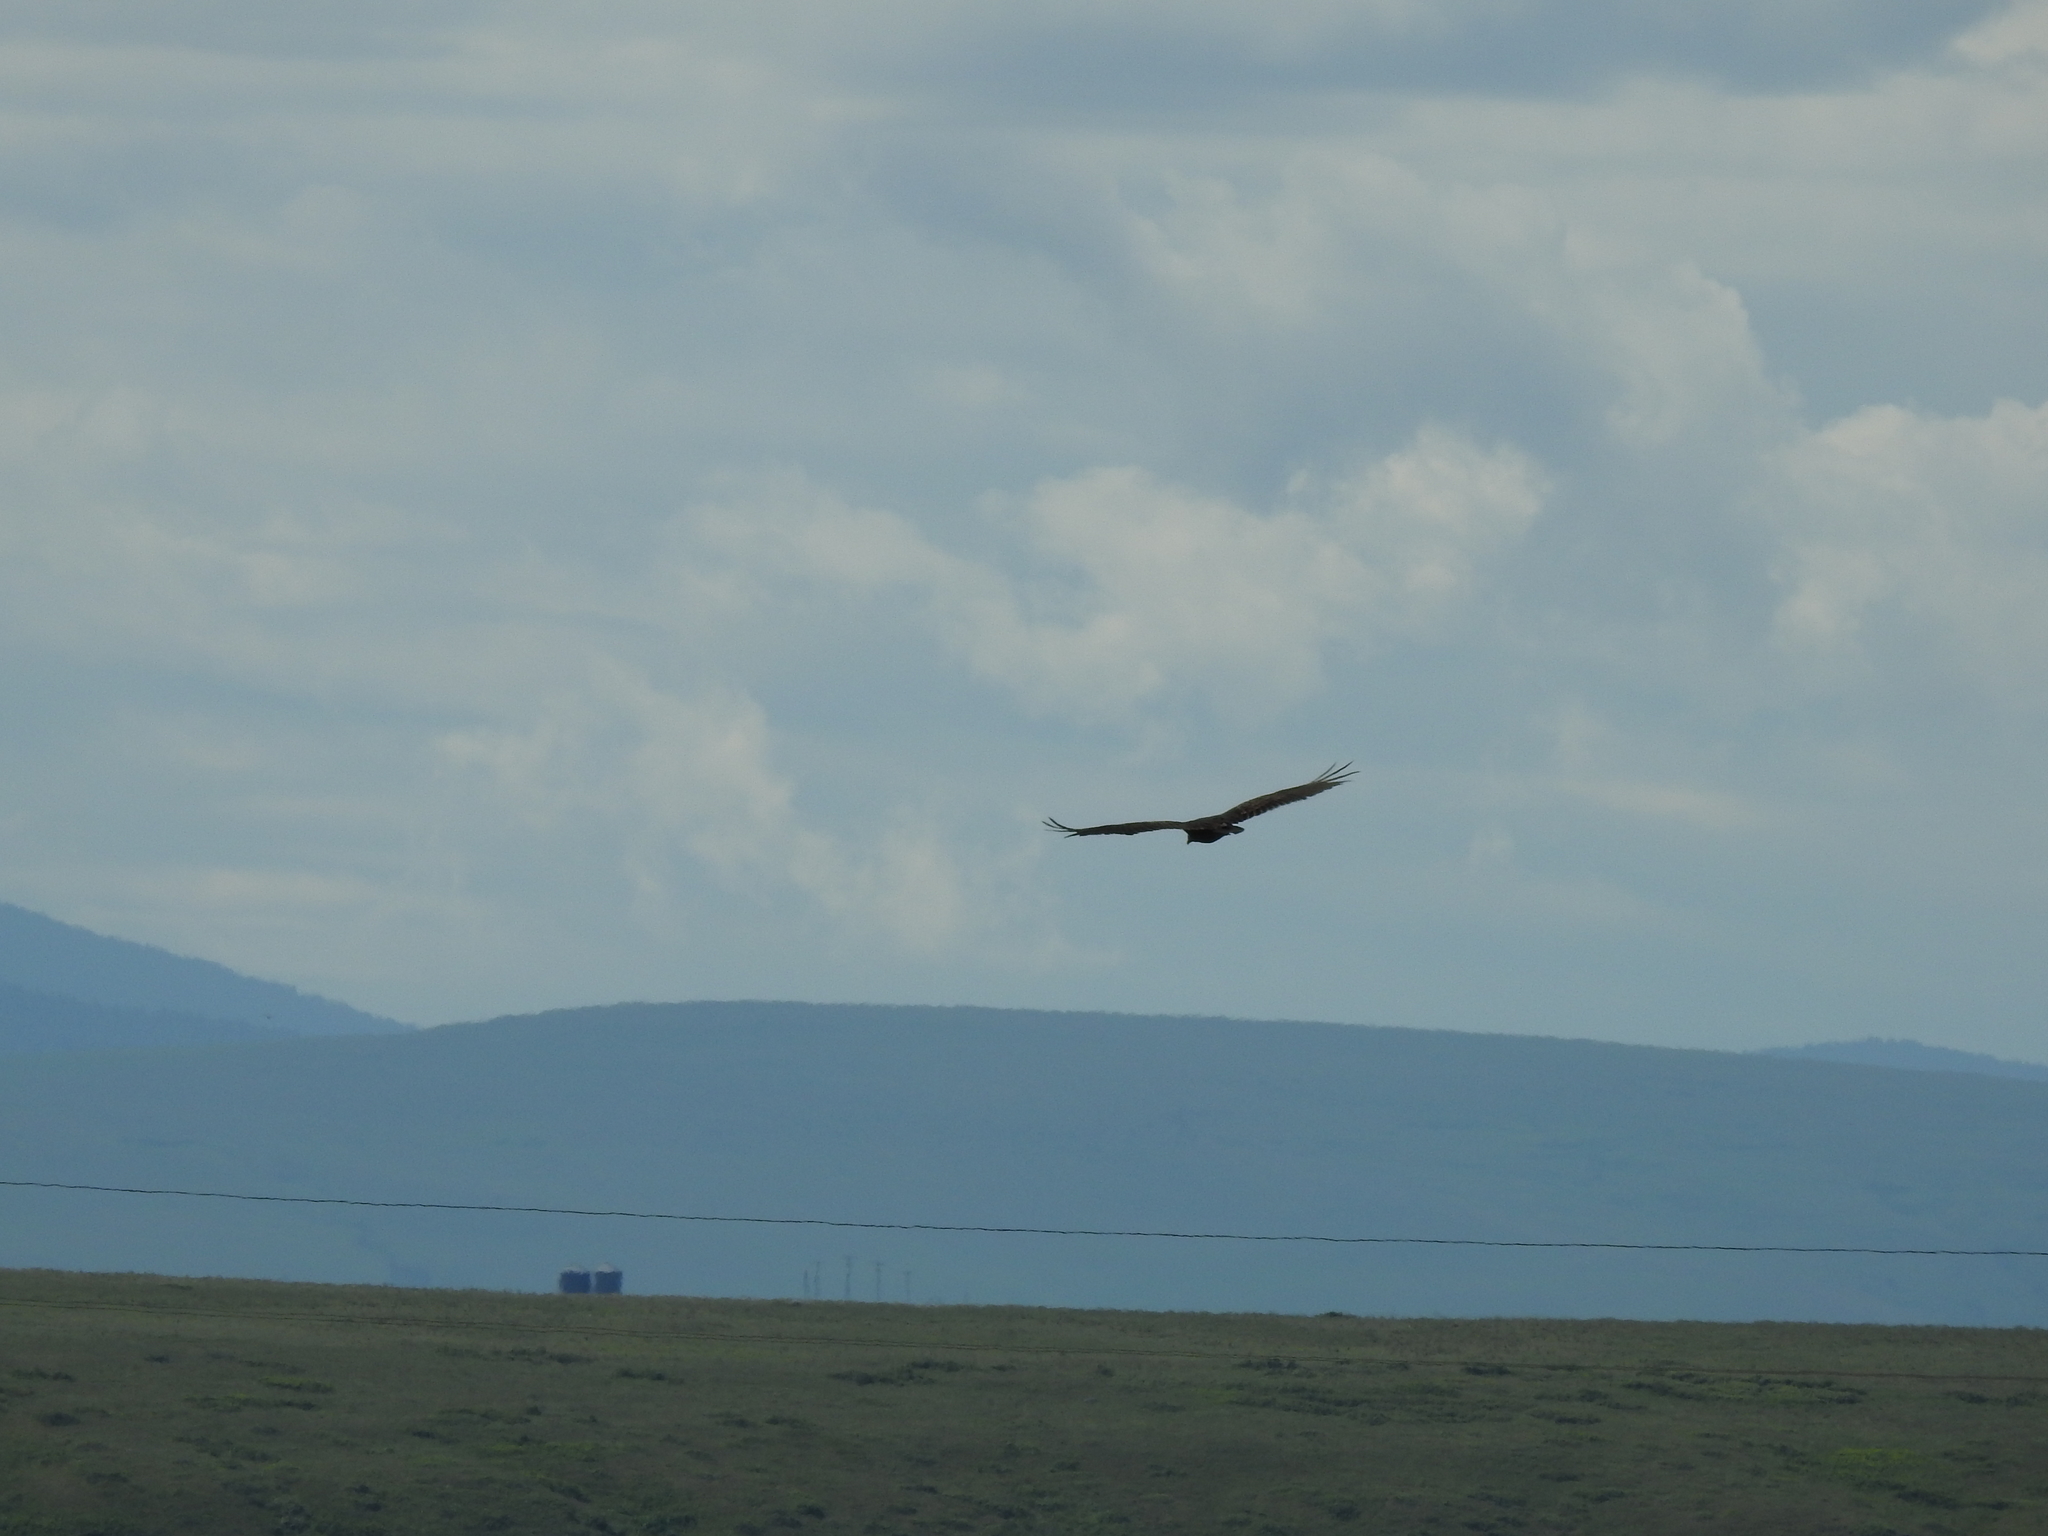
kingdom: Animalia
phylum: Chordata
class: Aves
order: Accipitriformes
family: Cathartidae
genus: Cathartes
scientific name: Cathartes aura
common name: Turkey vulture
